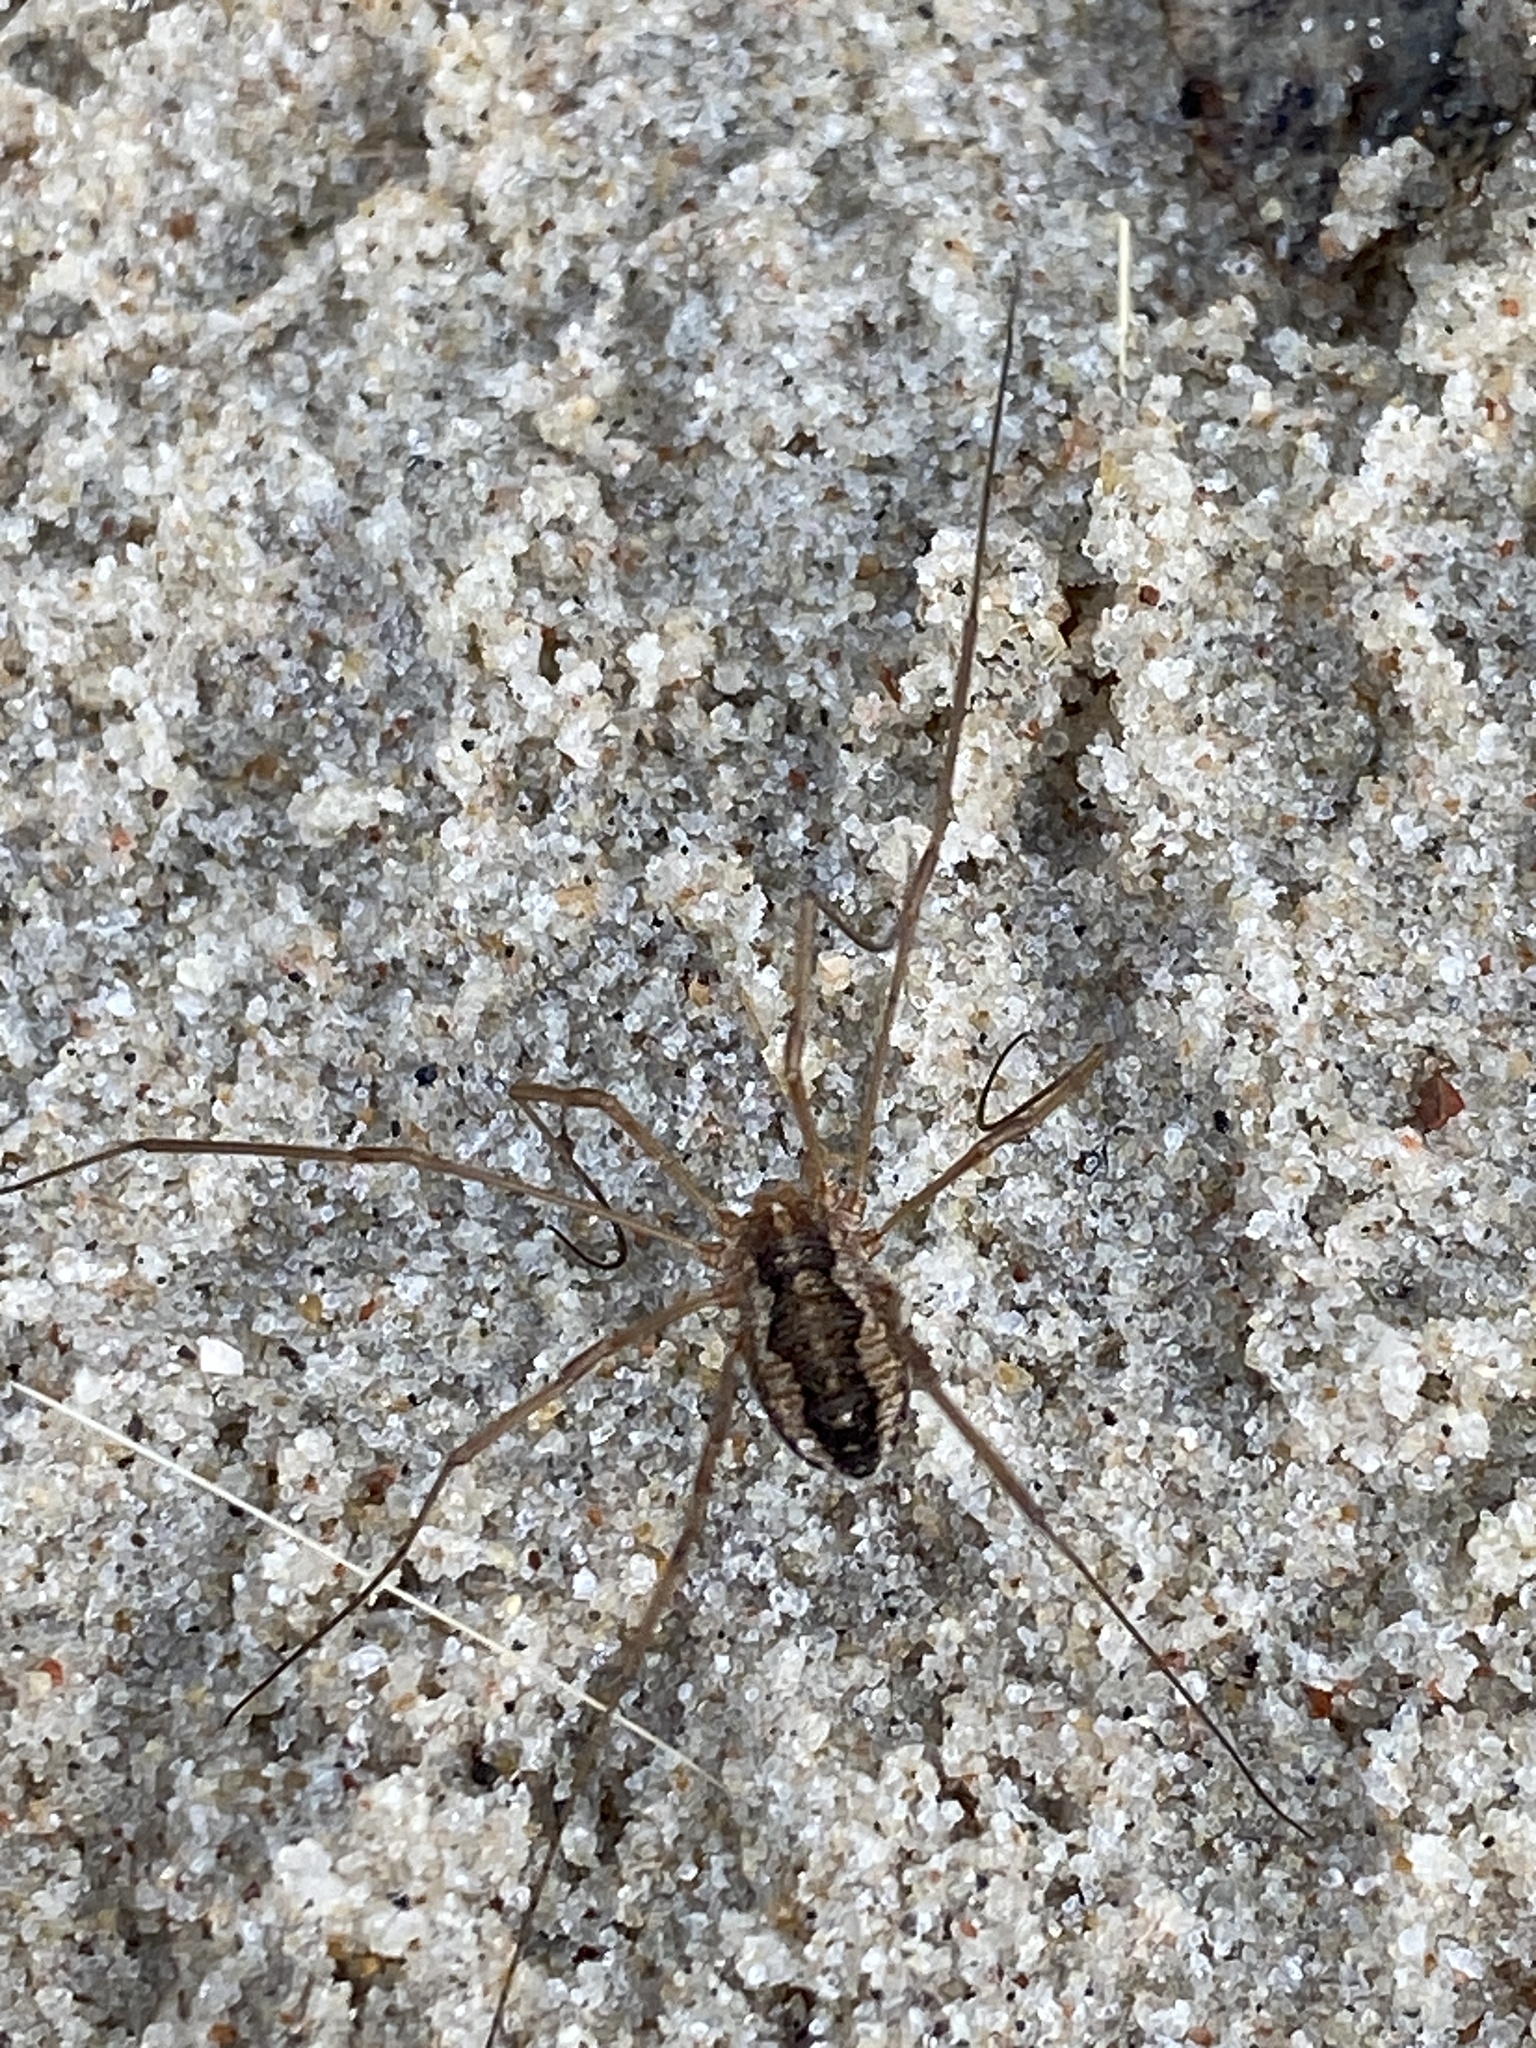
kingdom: Animalia
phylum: Arthropoda
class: Arachnida
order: Opiliones
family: Phalangiidae
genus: Phalangium
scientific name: Phalangium opilio
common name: Daddy longleg
